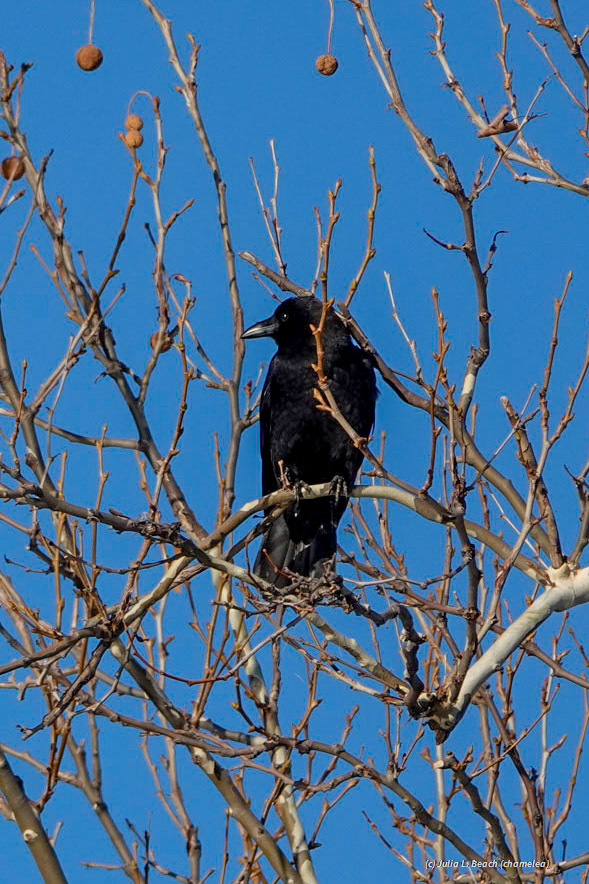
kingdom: Animalia
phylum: Chordata
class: Aves
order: Passeriformes
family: Corvidae
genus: Corvus
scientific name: Corvus brachyrhynchos
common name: American crow
